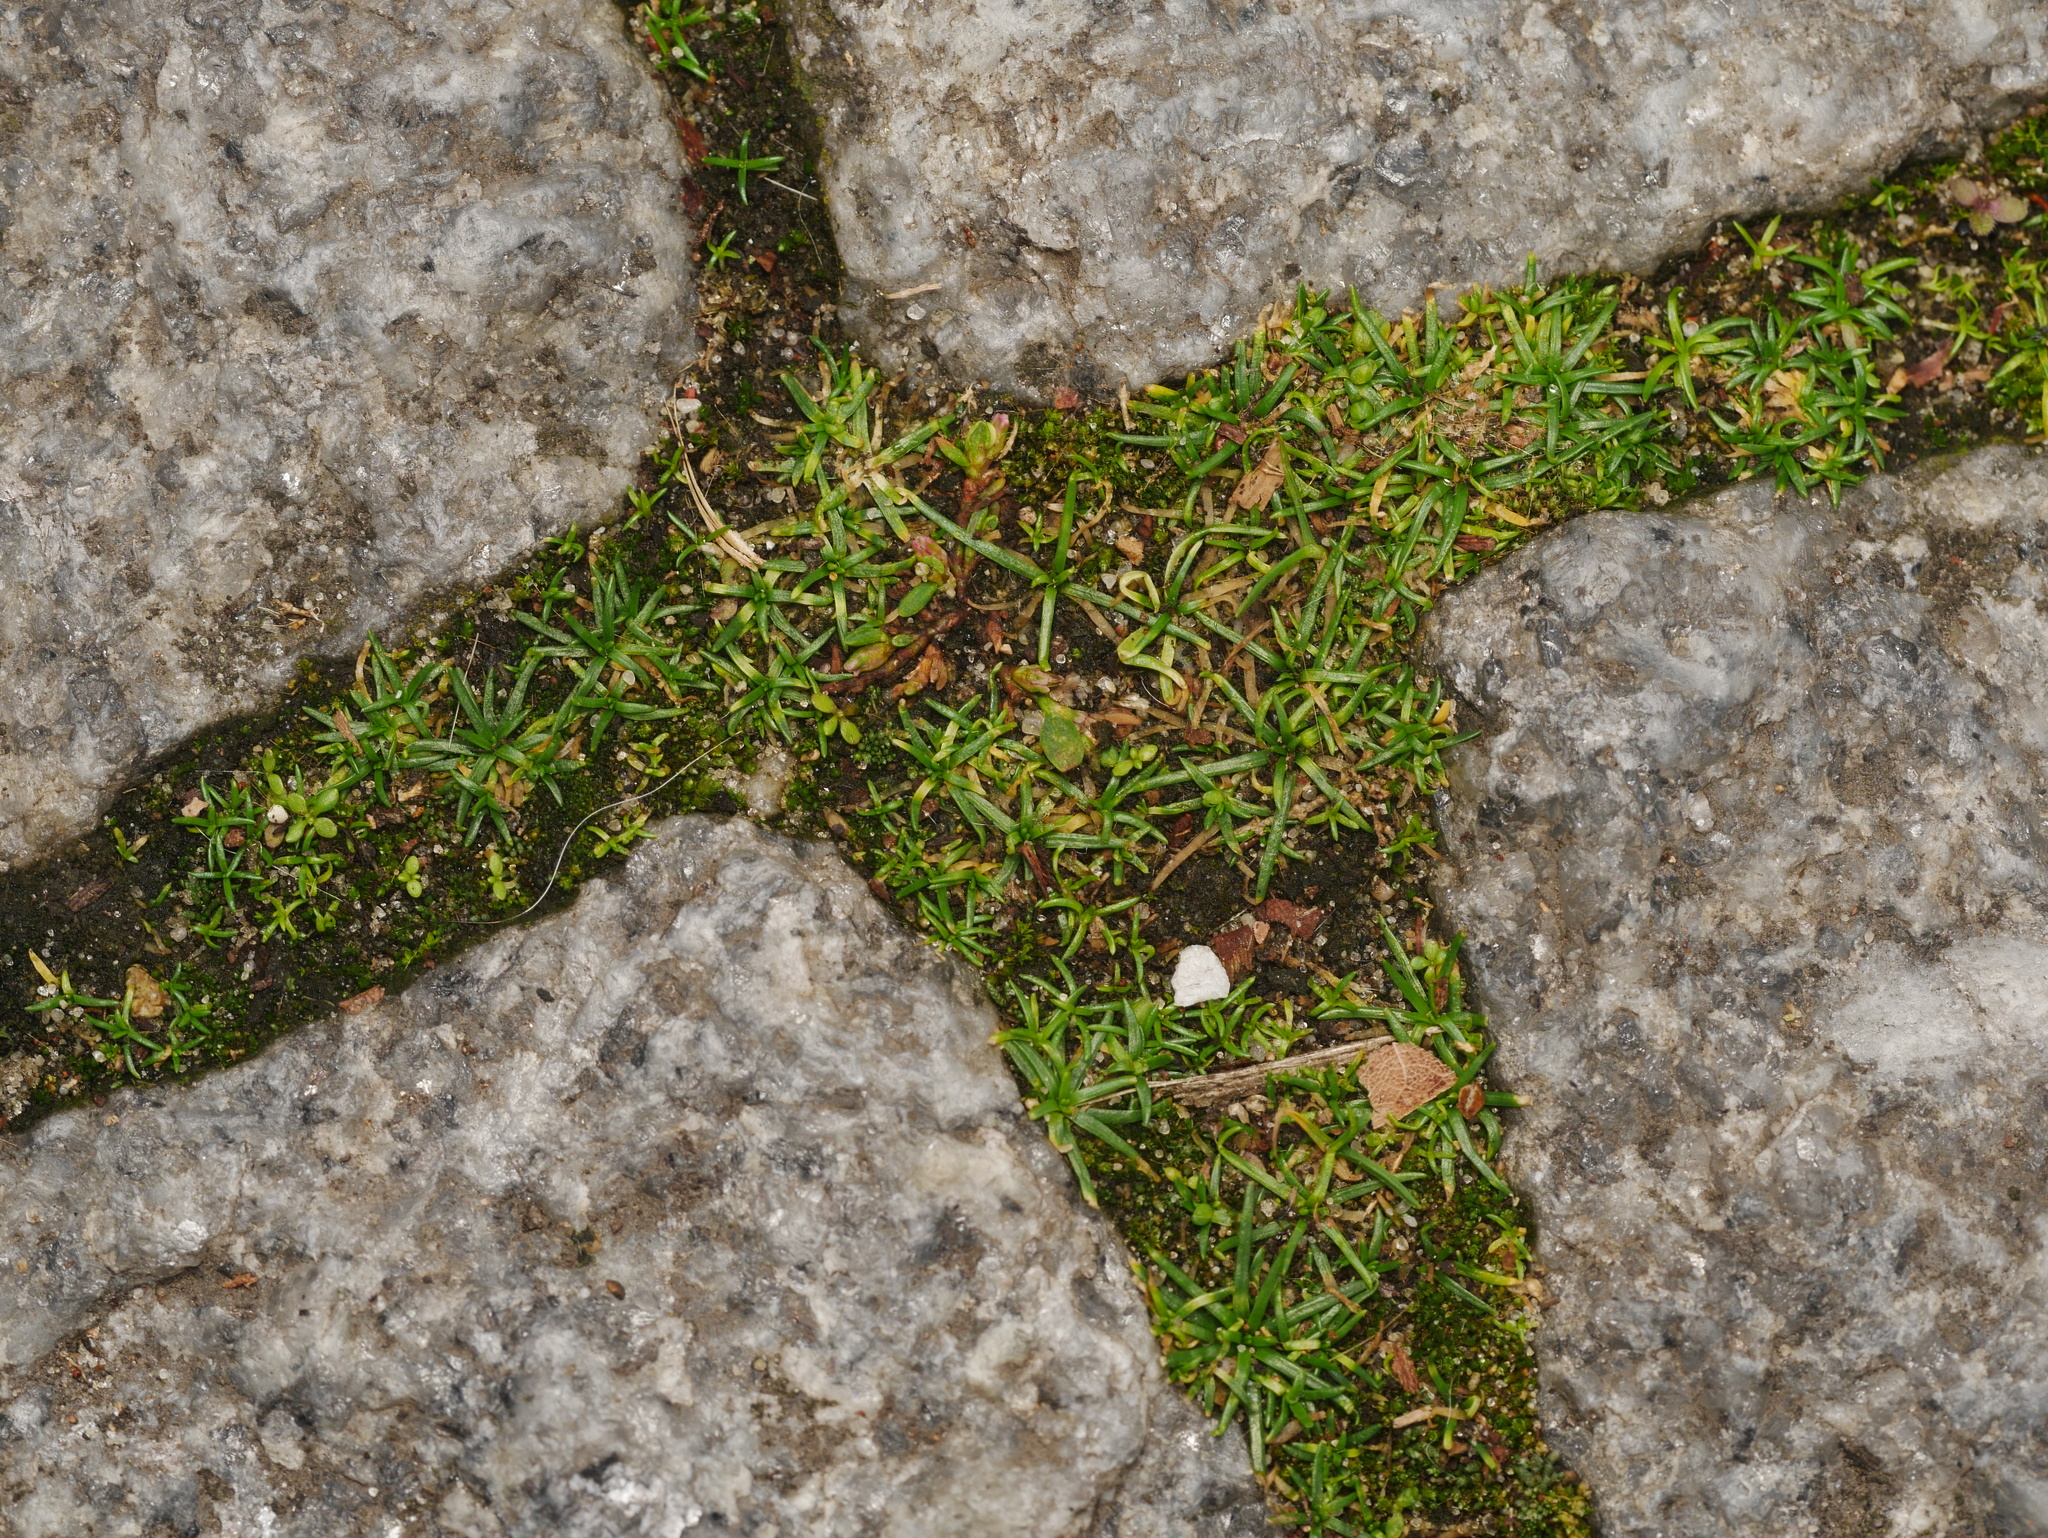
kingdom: Plantae
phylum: Tracheophyta
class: Magnoliopsida
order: Caryophyllales
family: Caryophyllaceae
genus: Sagina
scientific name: Sagina procumbens
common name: Procumbent pearlwort
